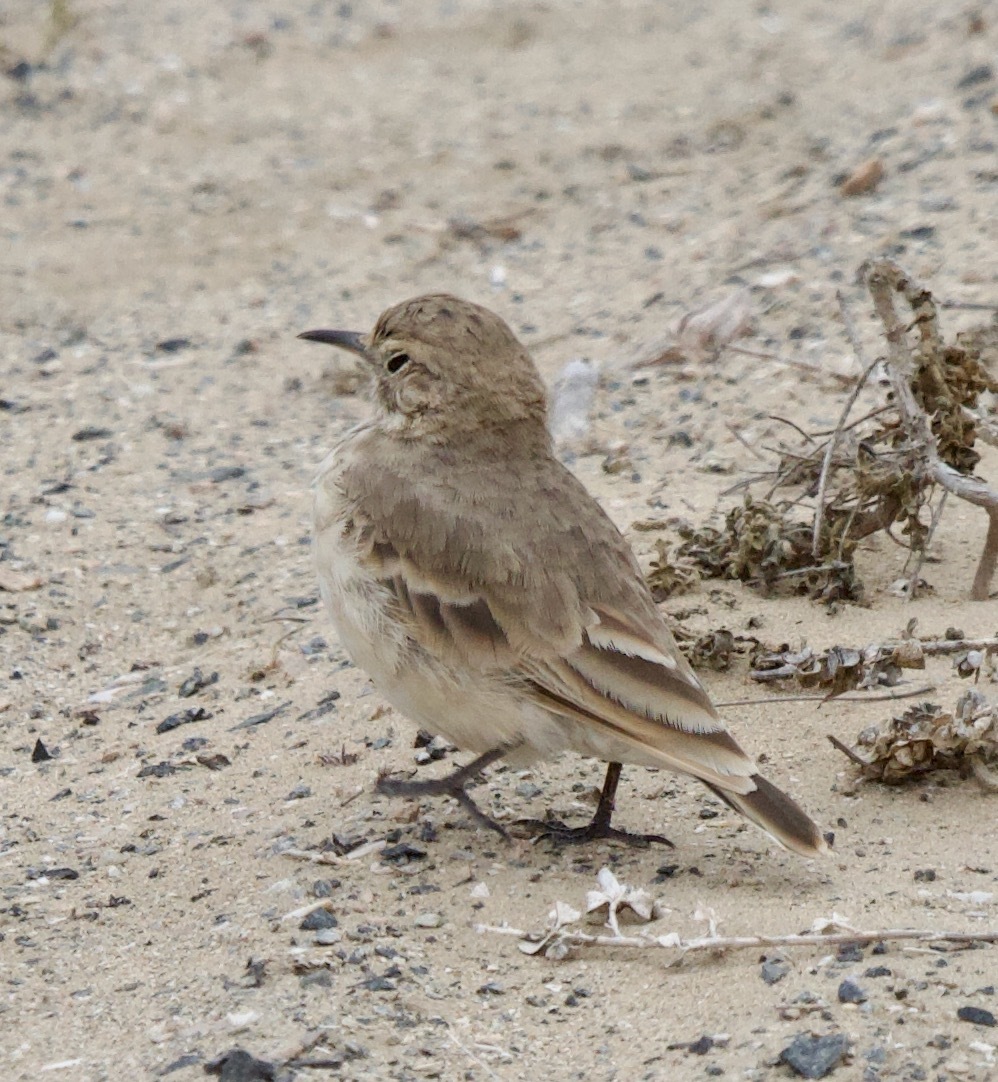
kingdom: Animalia
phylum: Chordata
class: Aves
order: Passeriformes
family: Furnariidae
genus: Geositta
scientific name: Geositta cunicularia
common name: Common miner
